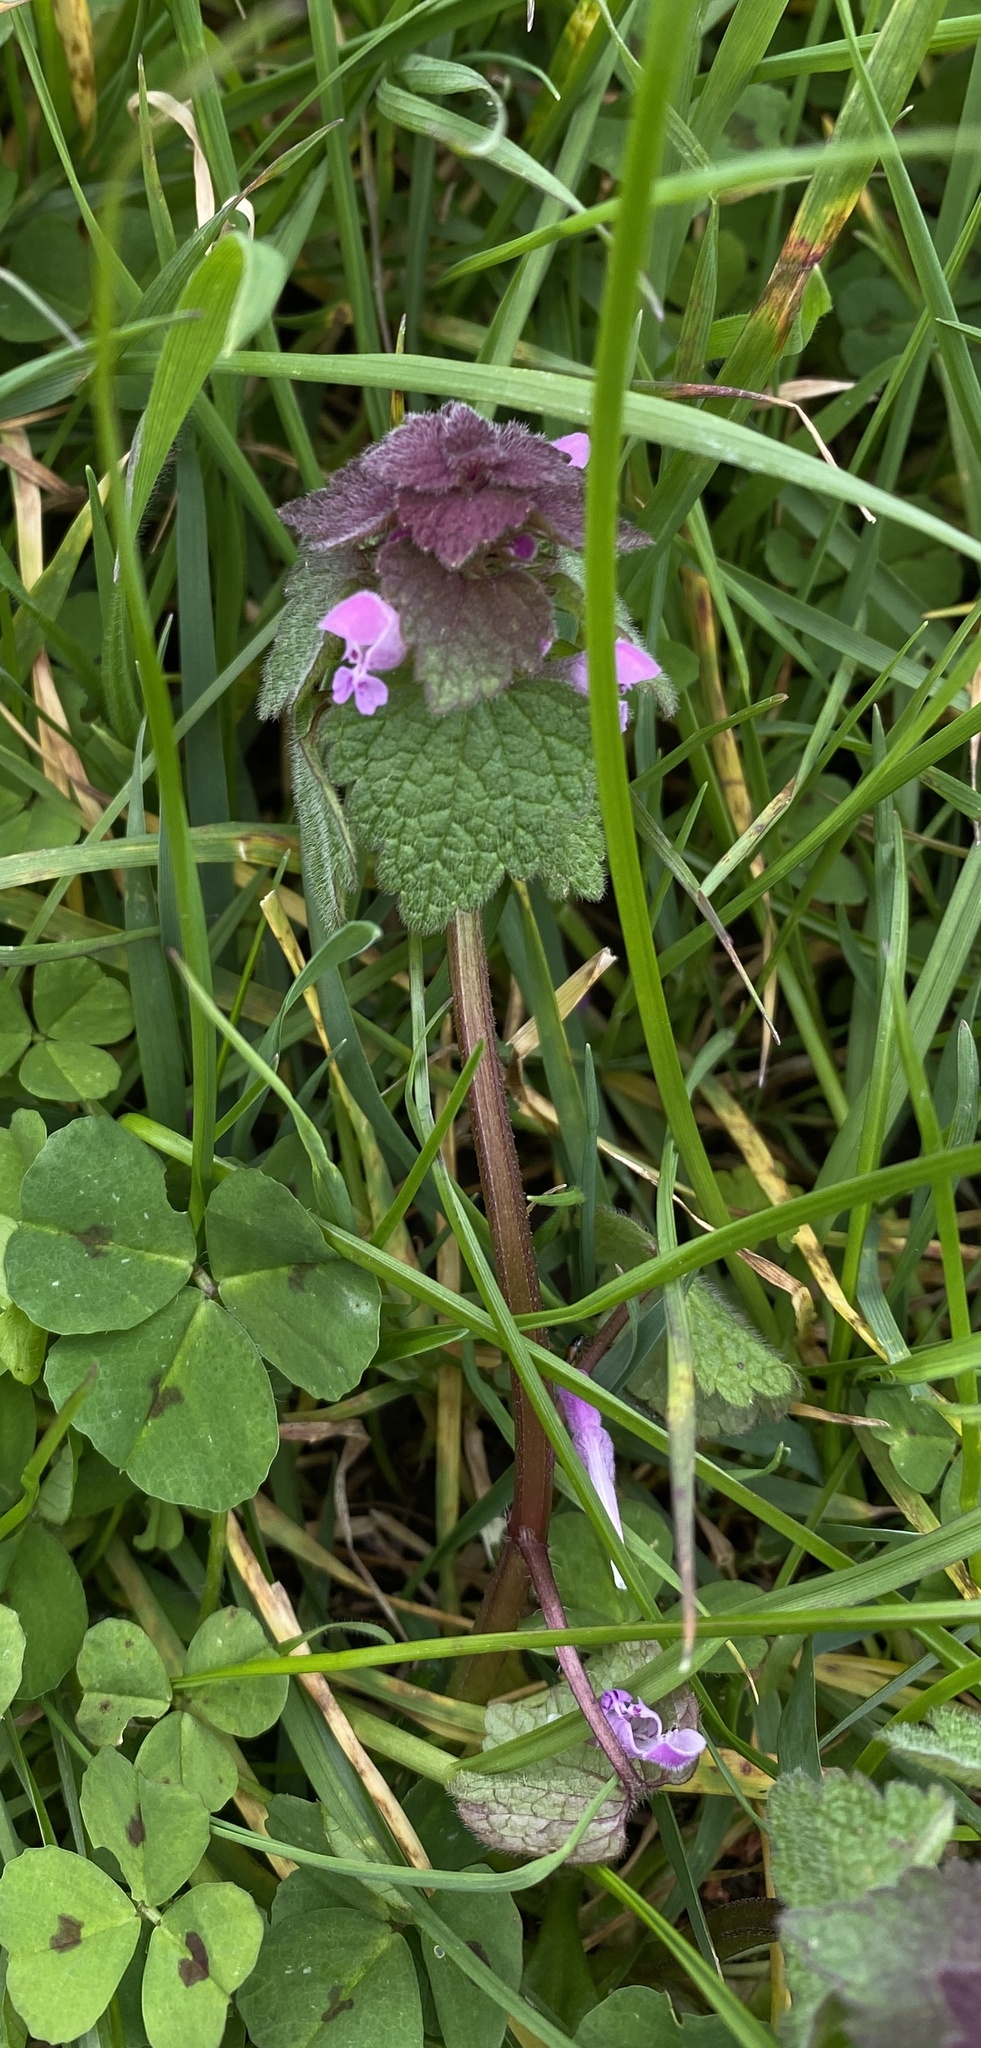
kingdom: Plantae
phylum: Tracheophyta
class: Magnoliopsida
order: Lamiales
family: Lamiaceae
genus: Lamium
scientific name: Lamium purpureum
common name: Red dead-nettle
